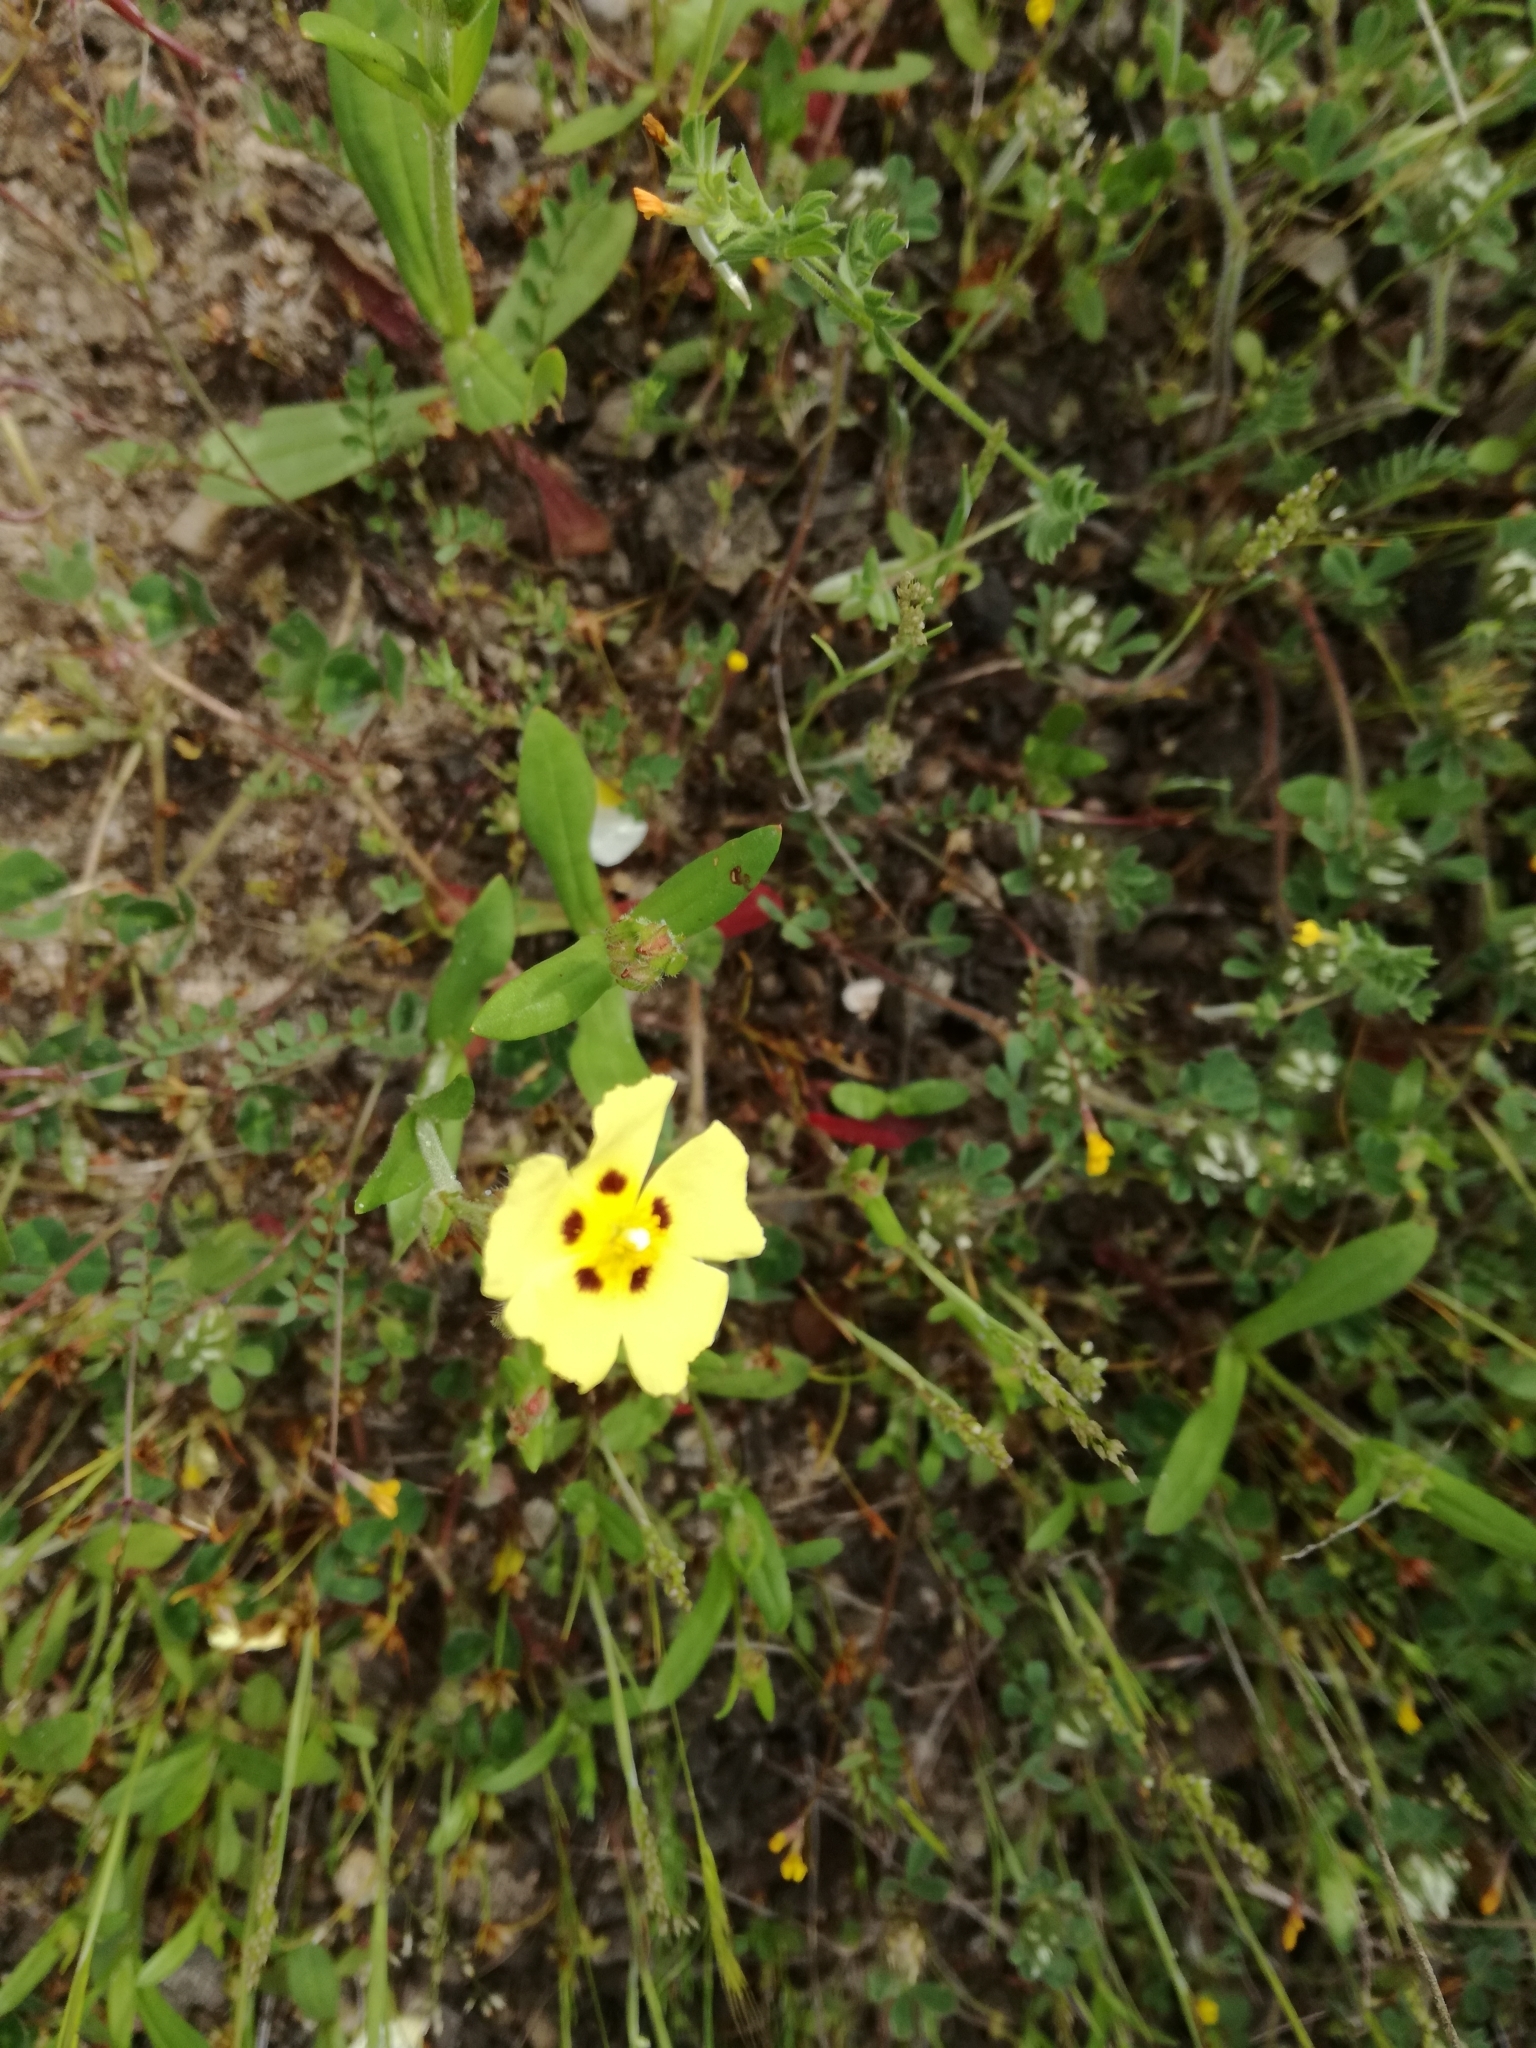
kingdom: Plantae
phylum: Tracheophyta
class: Magnoliopsida
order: Malvales
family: Cistaceae
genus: Tuberaria
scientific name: Tuberaria guttata
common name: Spotted rock-rose
